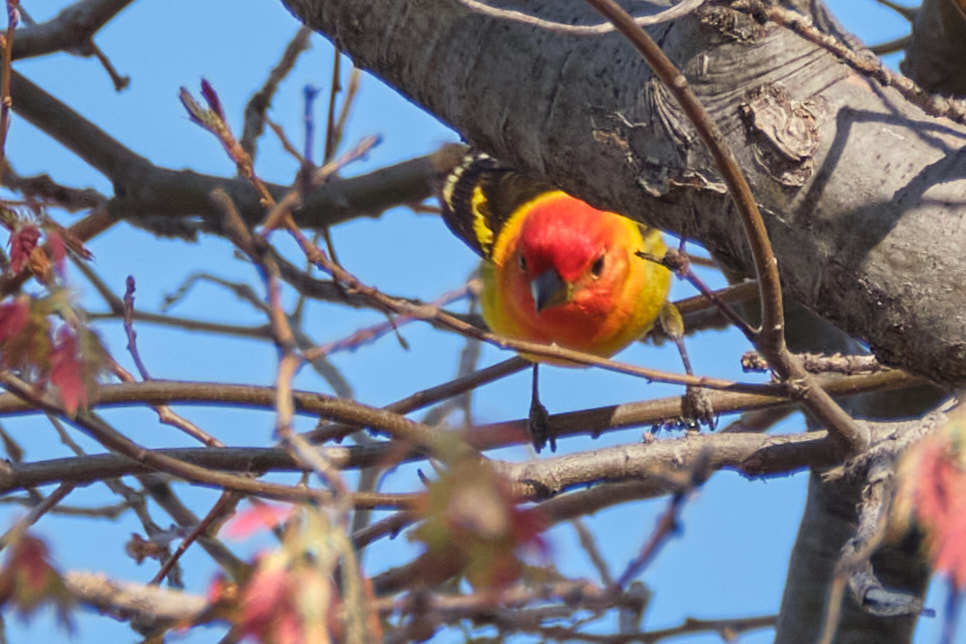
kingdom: Animalia
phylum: Chordata
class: Aves
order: Passeriformes
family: Cardinalidae
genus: Piranga
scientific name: Piranga ludoviciana
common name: Western tanager
